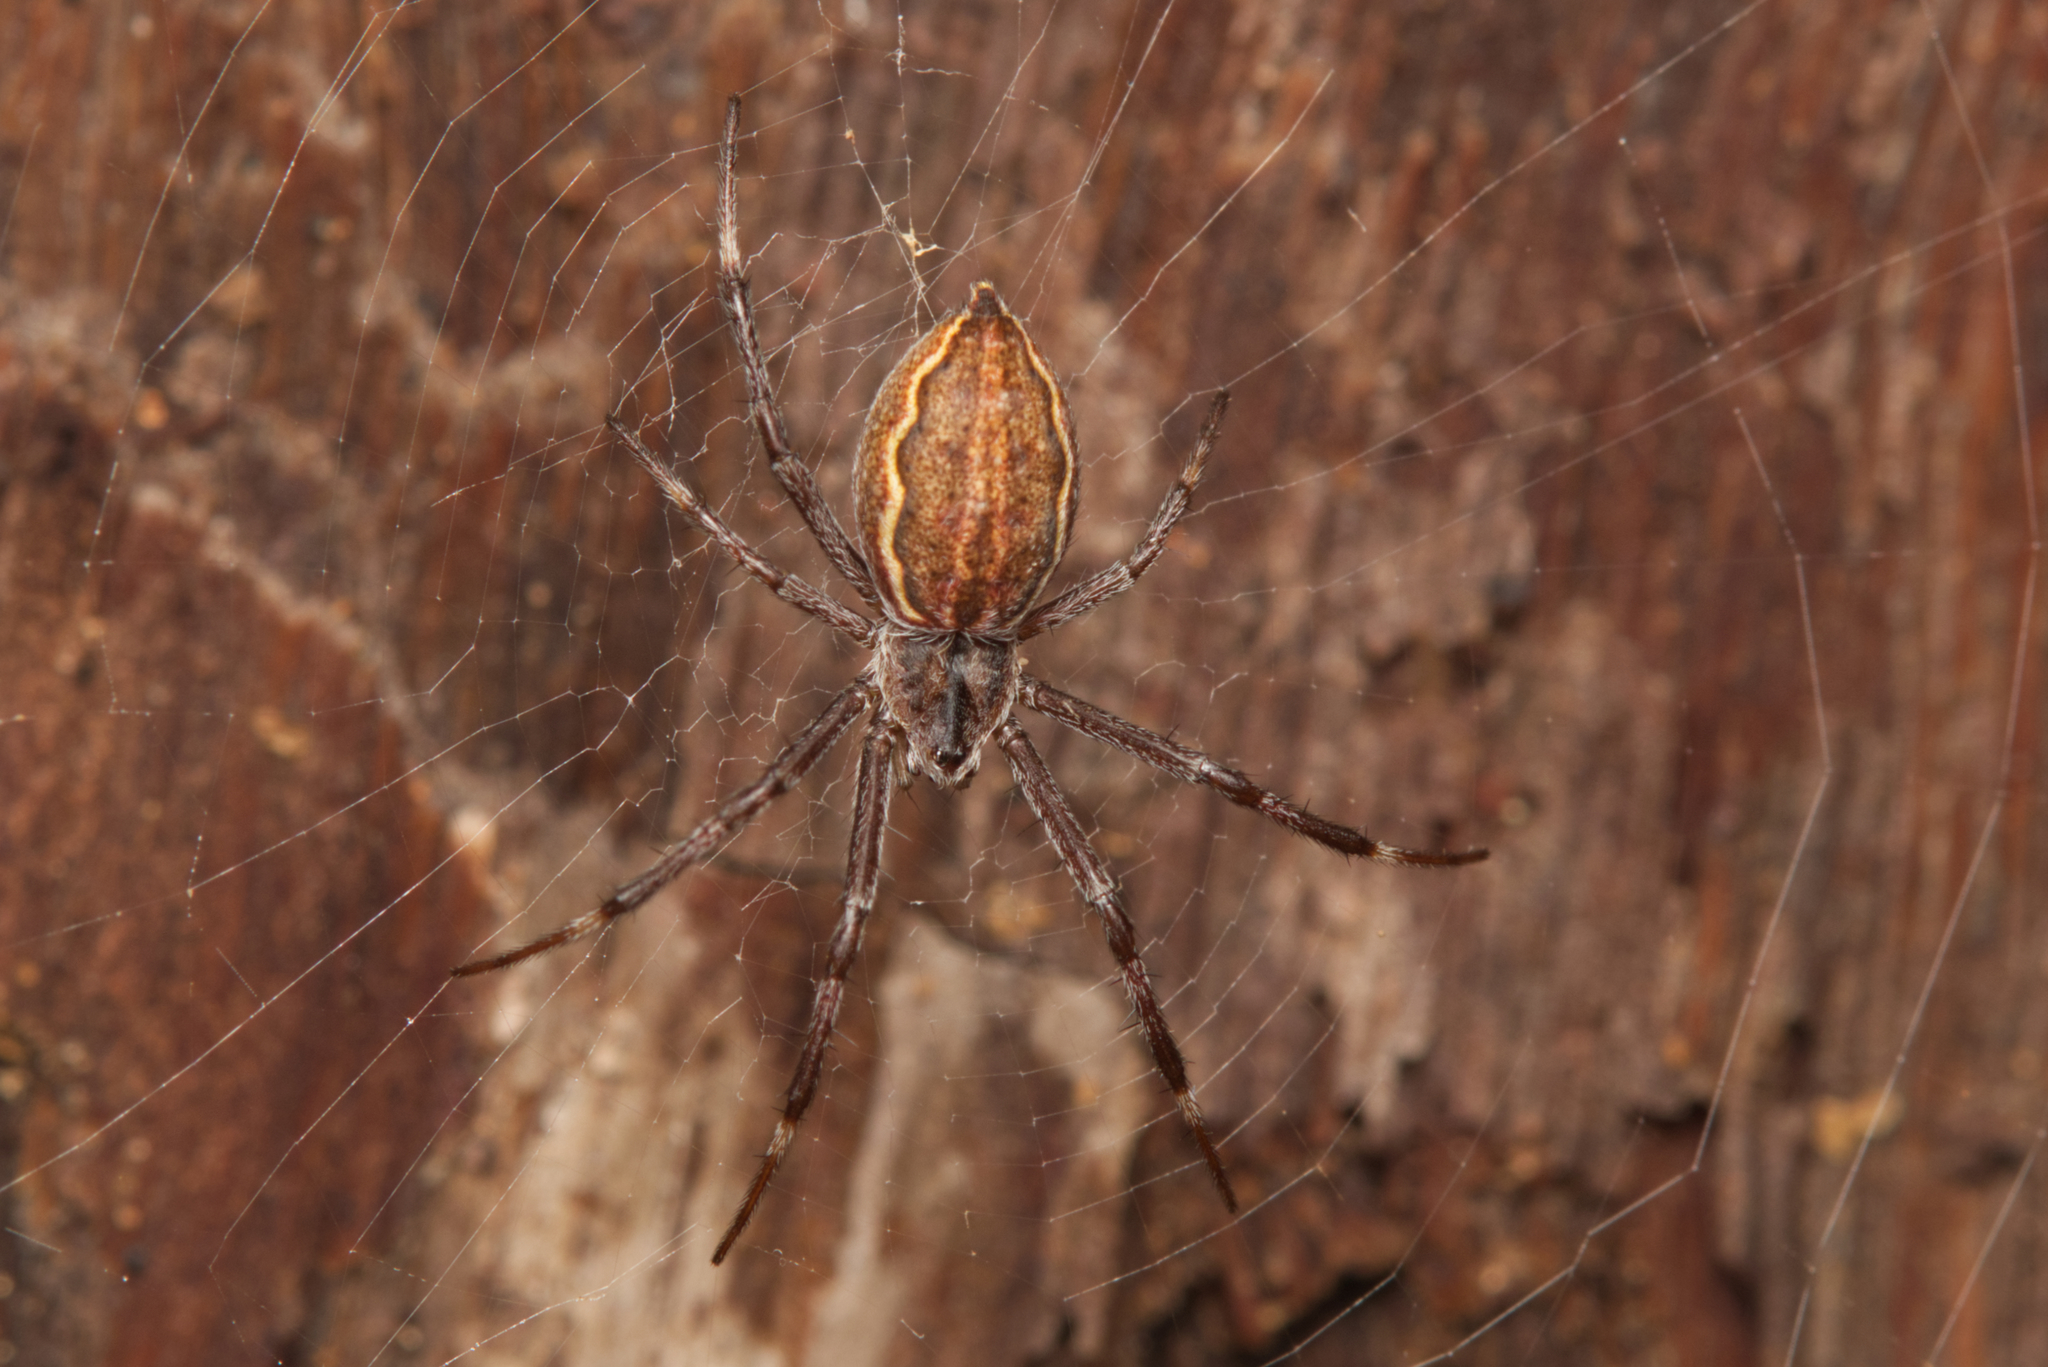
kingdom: Animalia
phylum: Arthropoda
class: Arachnida
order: Araneae
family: Araneidae
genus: Argiope
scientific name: Argiope ocyaloides
